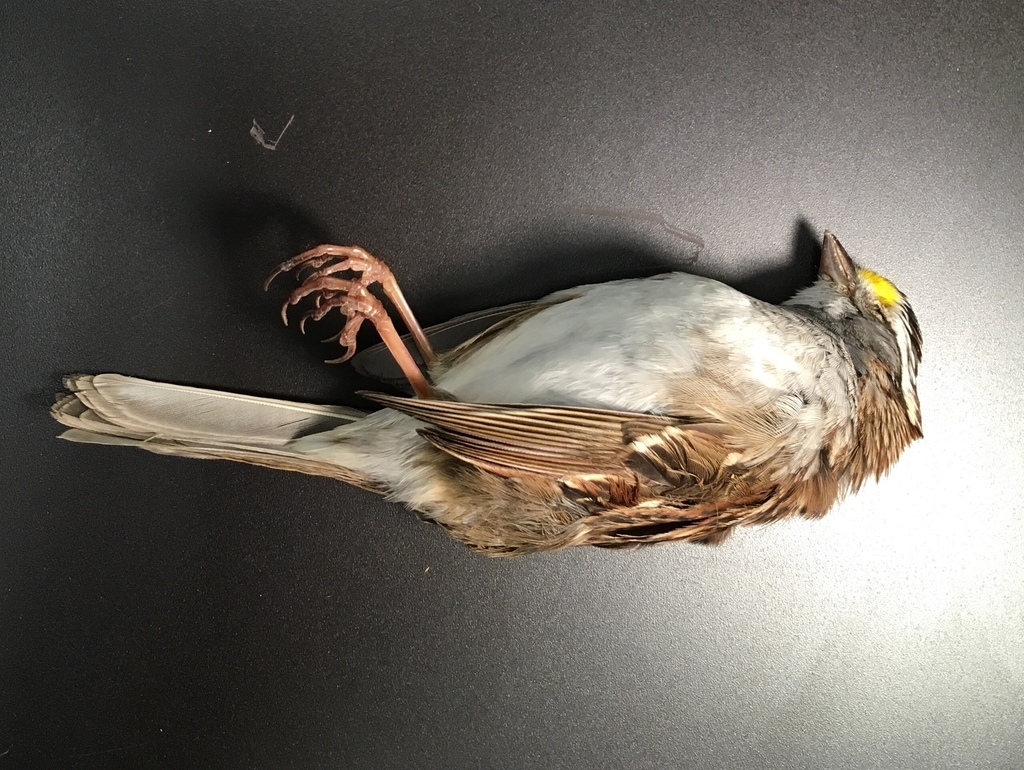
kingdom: Animalia
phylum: Chordata
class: Aves
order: Passeriformes
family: Passerellidae
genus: Zonotrichia
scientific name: Zonotrichia albicollis
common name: White-throated sparrow
